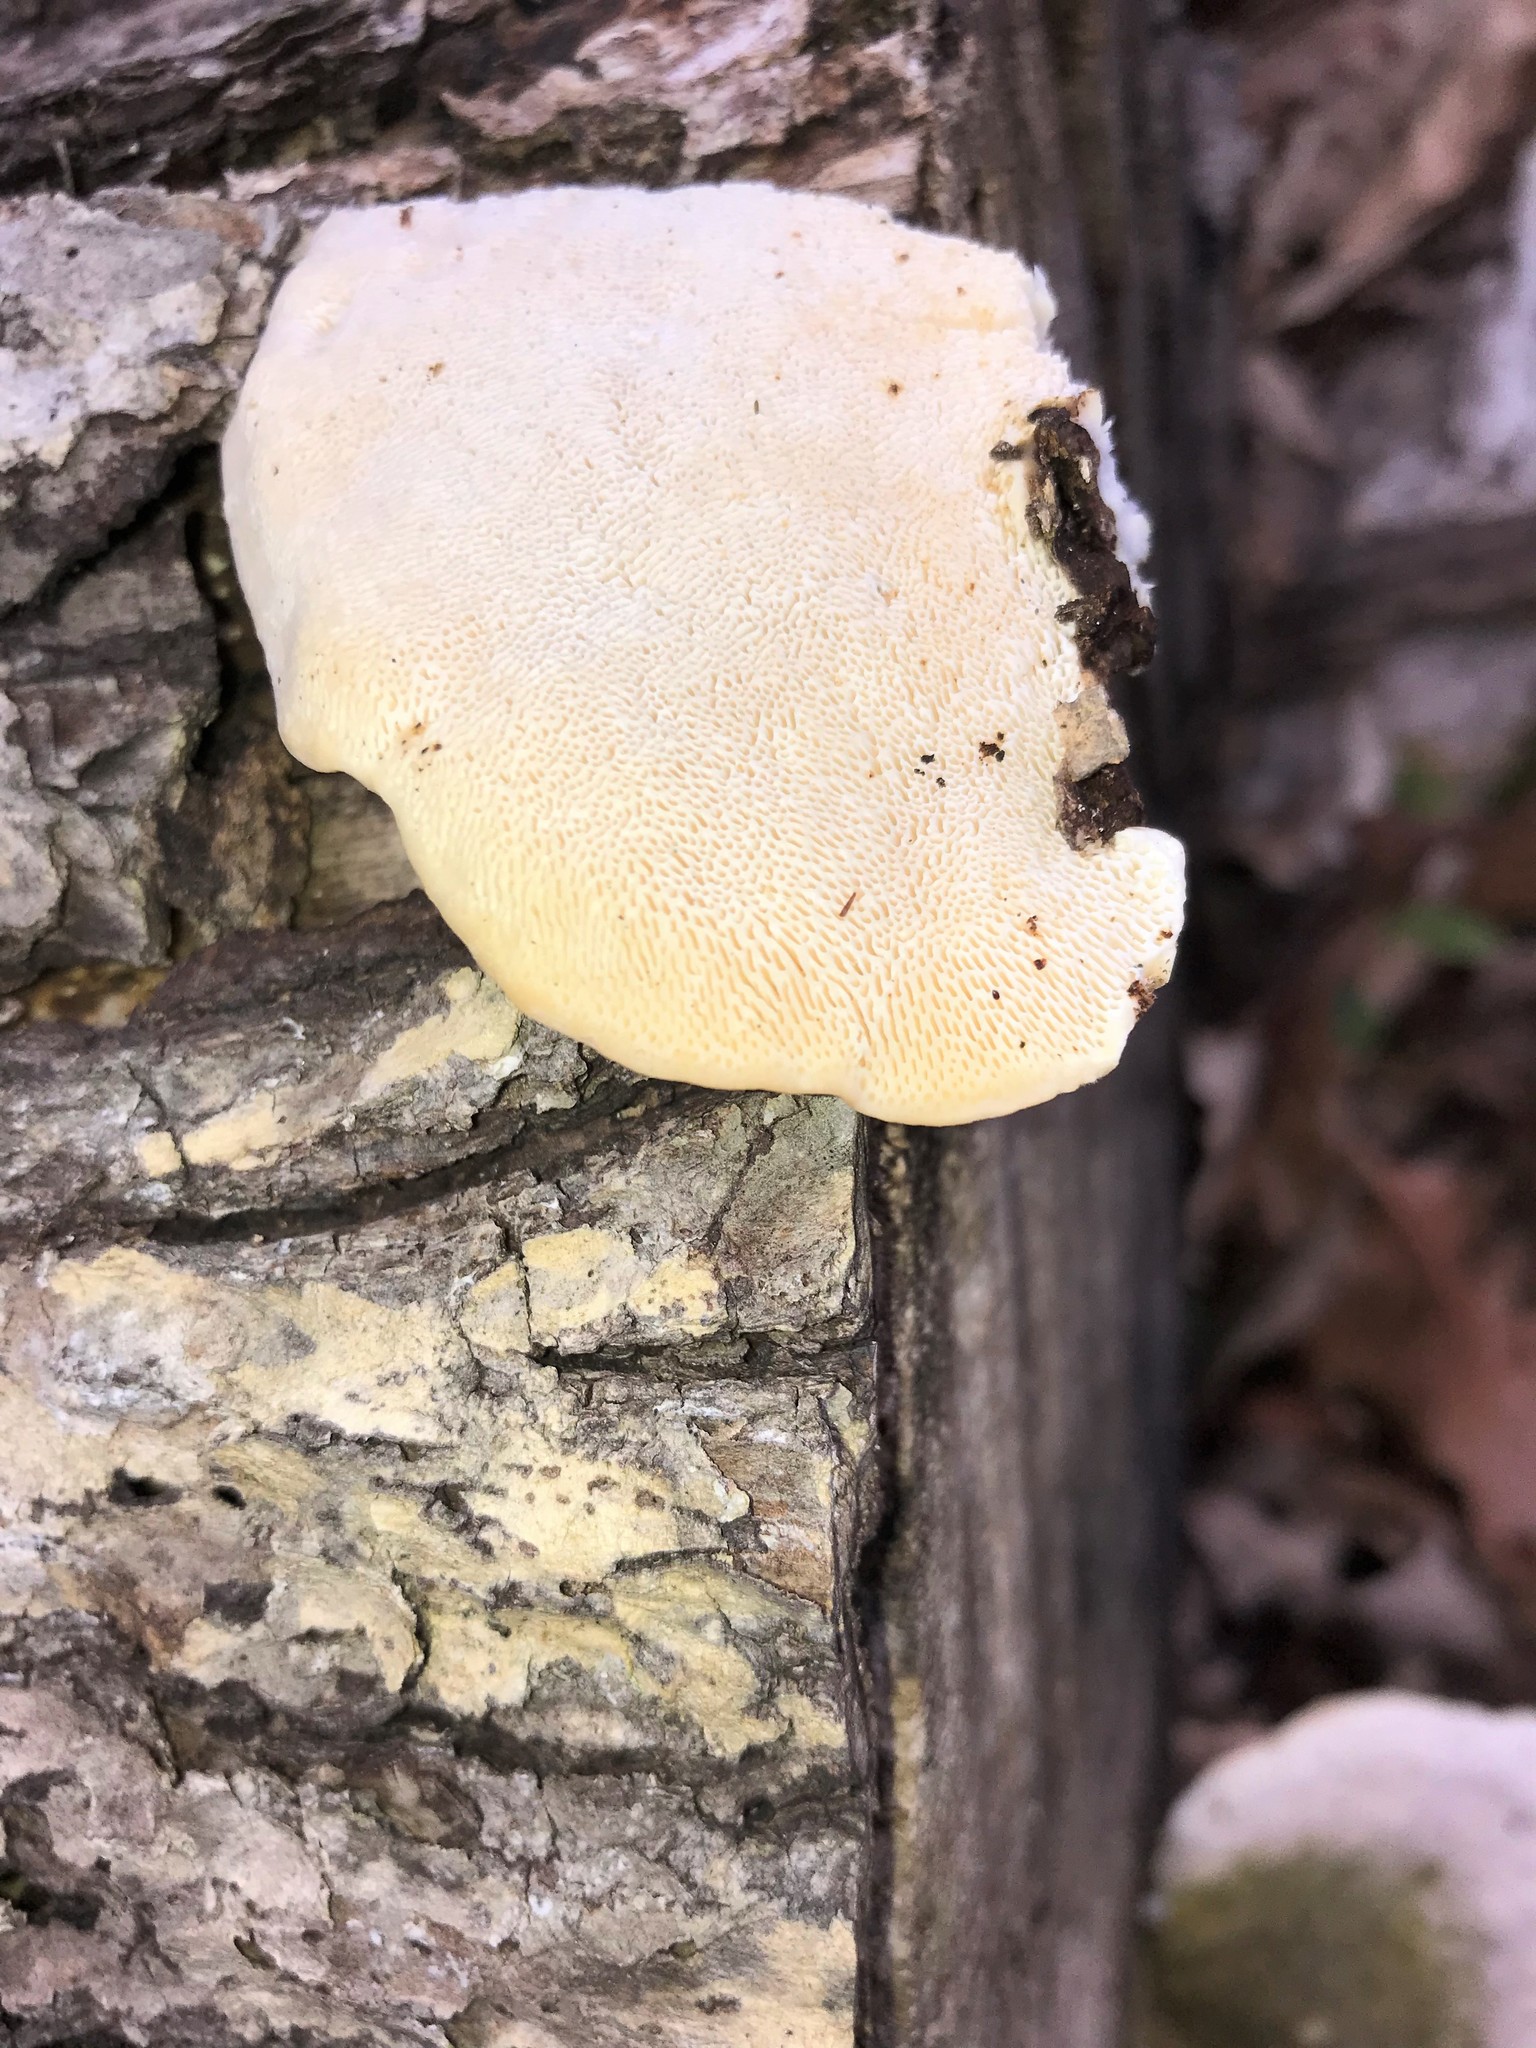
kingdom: Fungi
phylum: Basidiomycota
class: Agaricomycetes
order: Polyporales
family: Polyporaceae
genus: Trametes
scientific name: Trametes gibbosa
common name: Lumpy bracket
